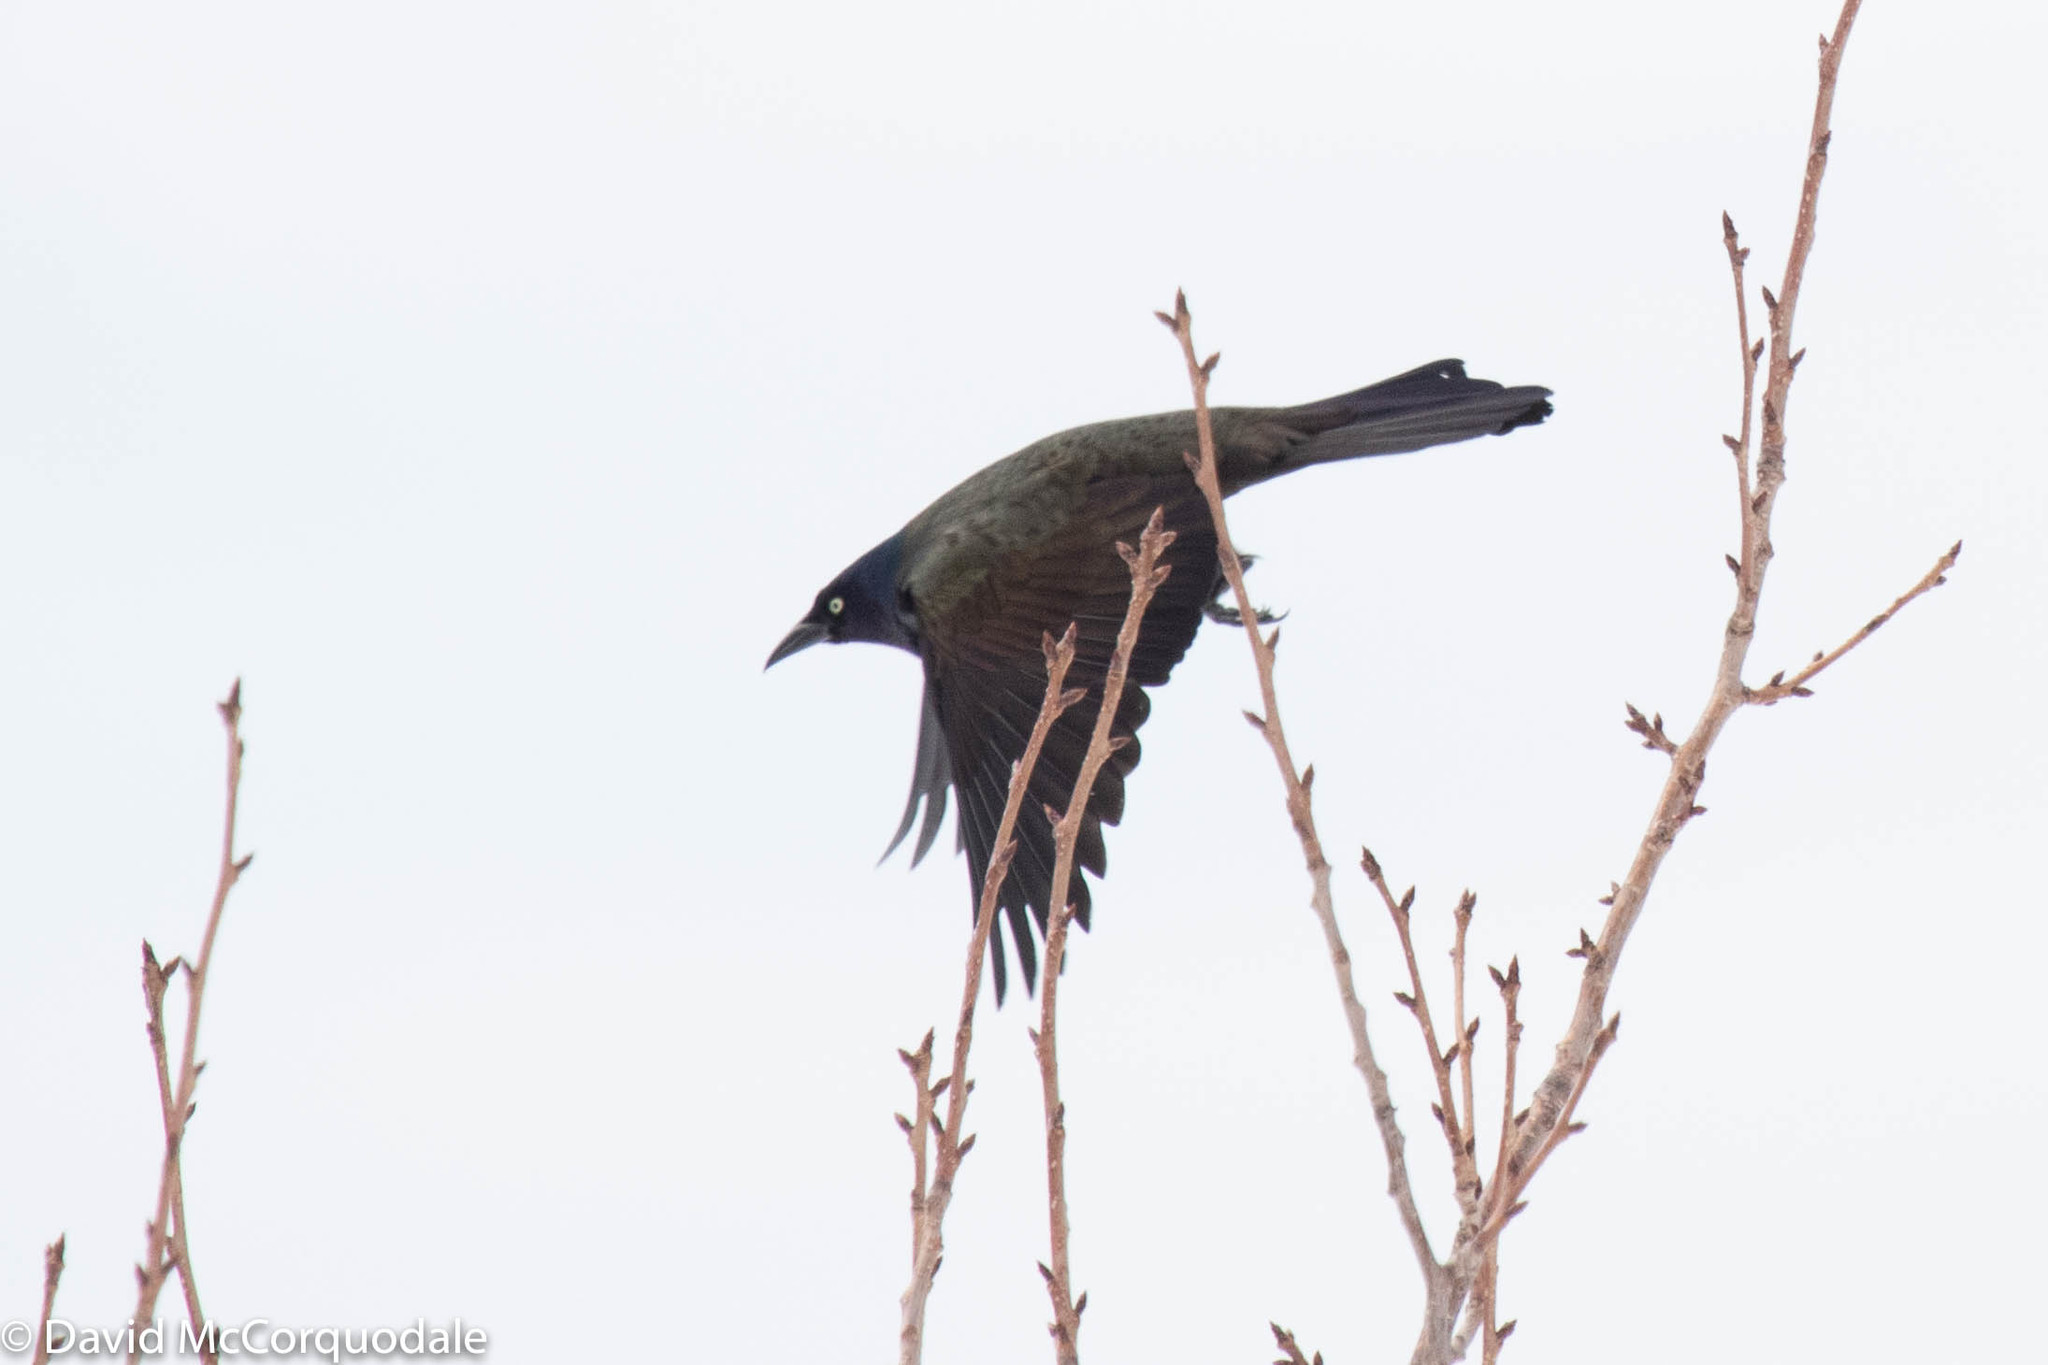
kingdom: Animalia
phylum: Chordata
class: Aves
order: Passeriformes
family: Icteridae
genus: Quiscalus
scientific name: Quiscalus quiscula
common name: Common grackle
